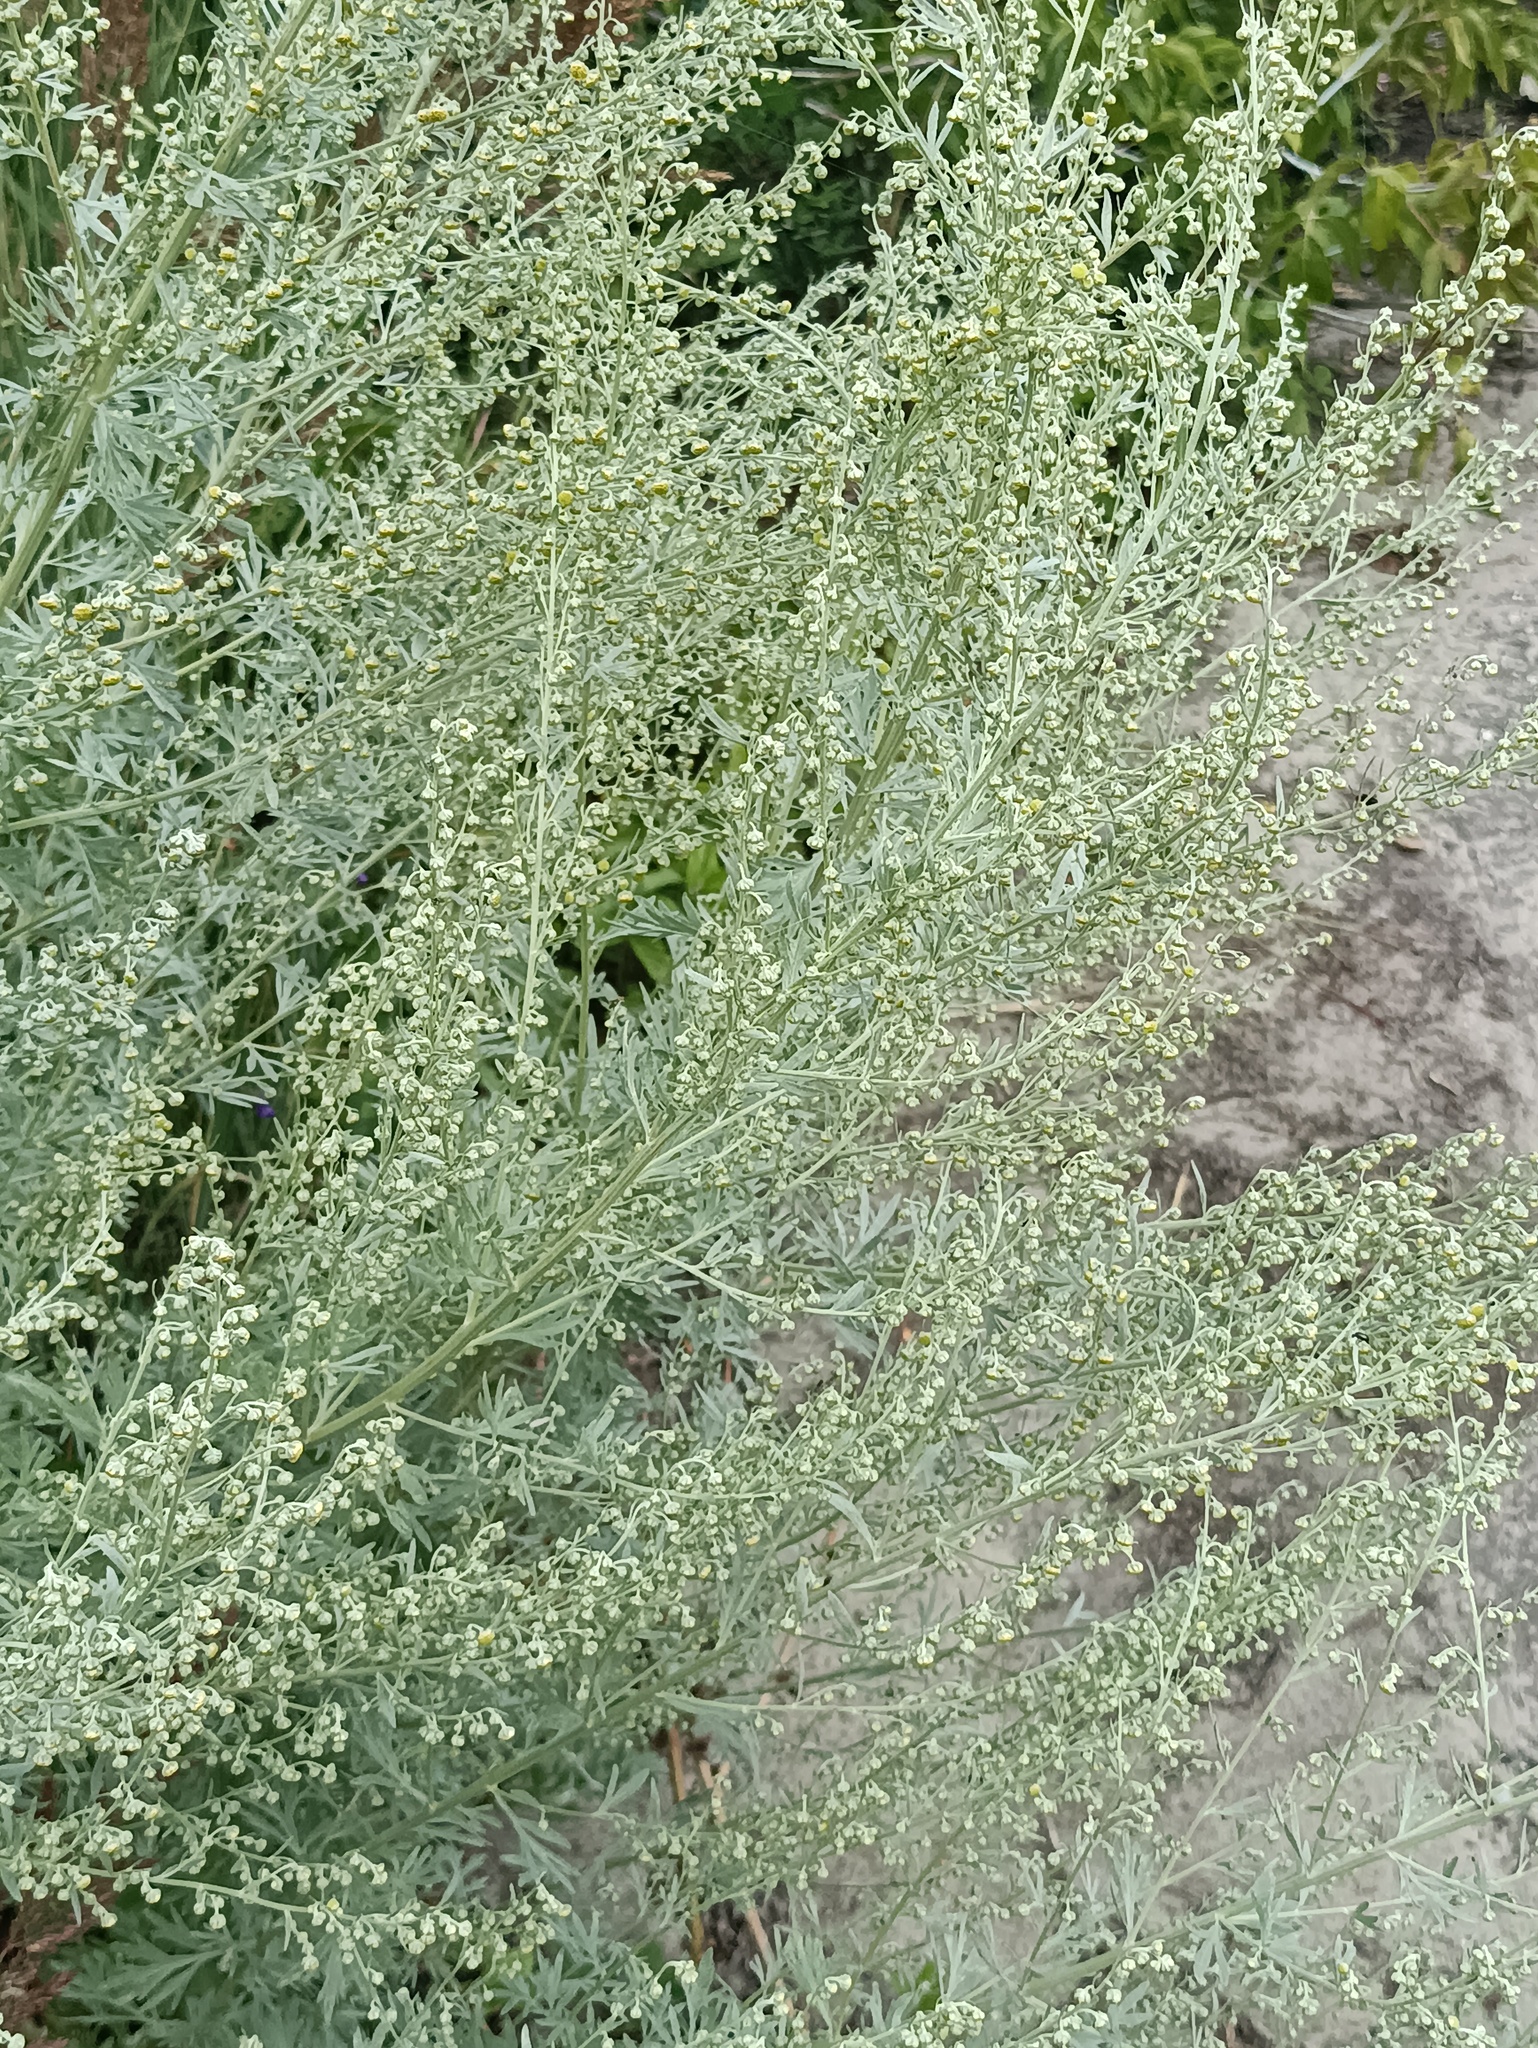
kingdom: Plantae
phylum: Tracheophyta
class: Magnoliopsida
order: Asterales
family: Asteraceae
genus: Artemisia
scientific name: Artemisia absinthium
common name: Wormwood
